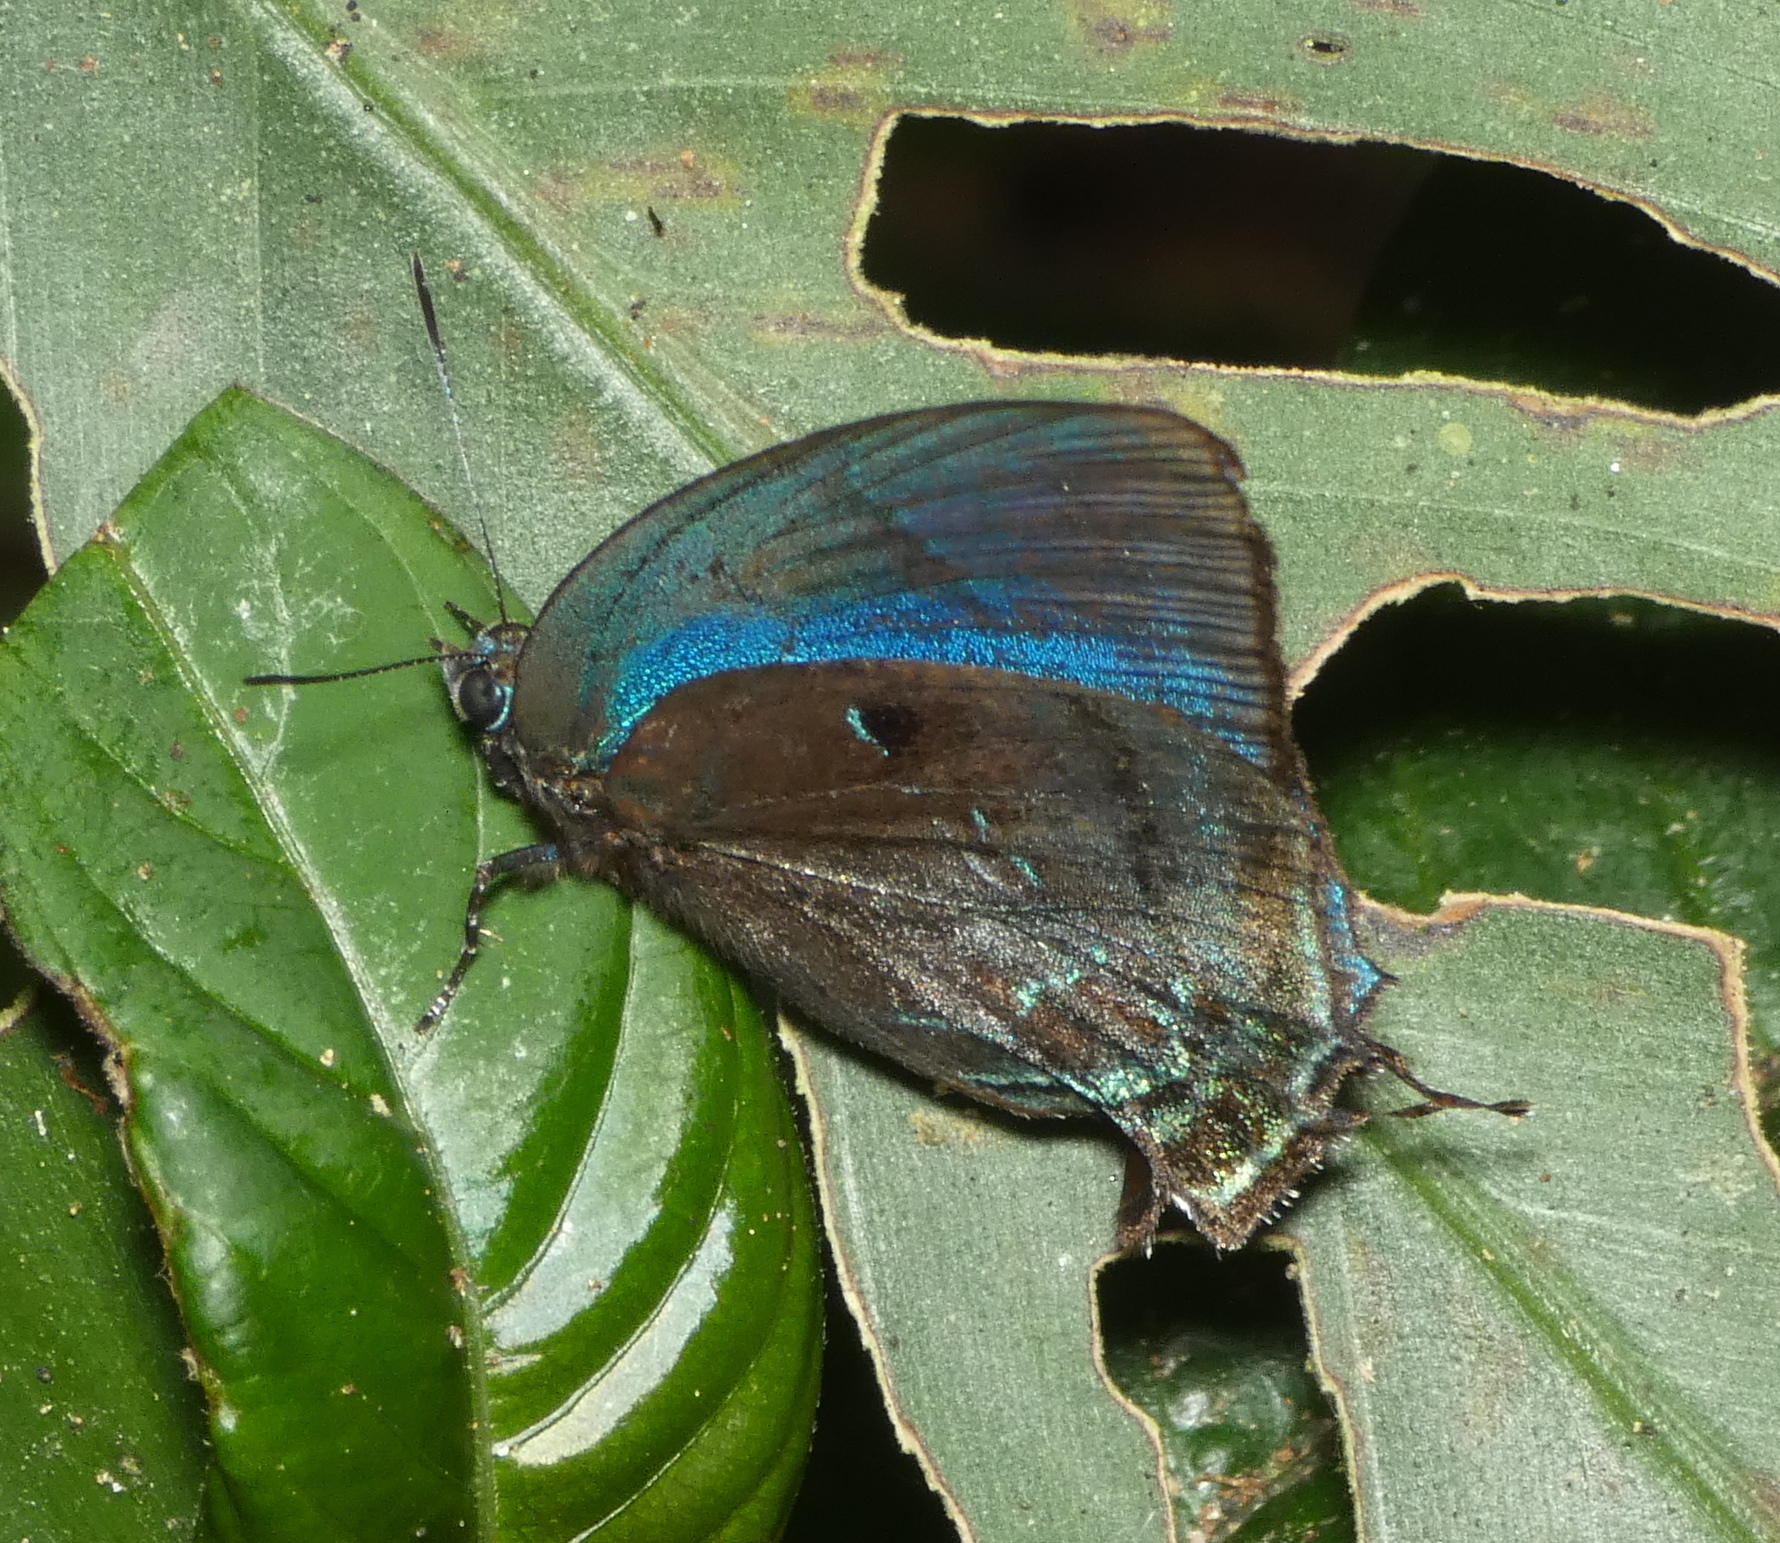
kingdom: Animalia
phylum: Arthropoda
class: Insecta
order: Lepidoptera
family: Lycaenidae
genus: Denivia
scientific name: Denivia hemon
